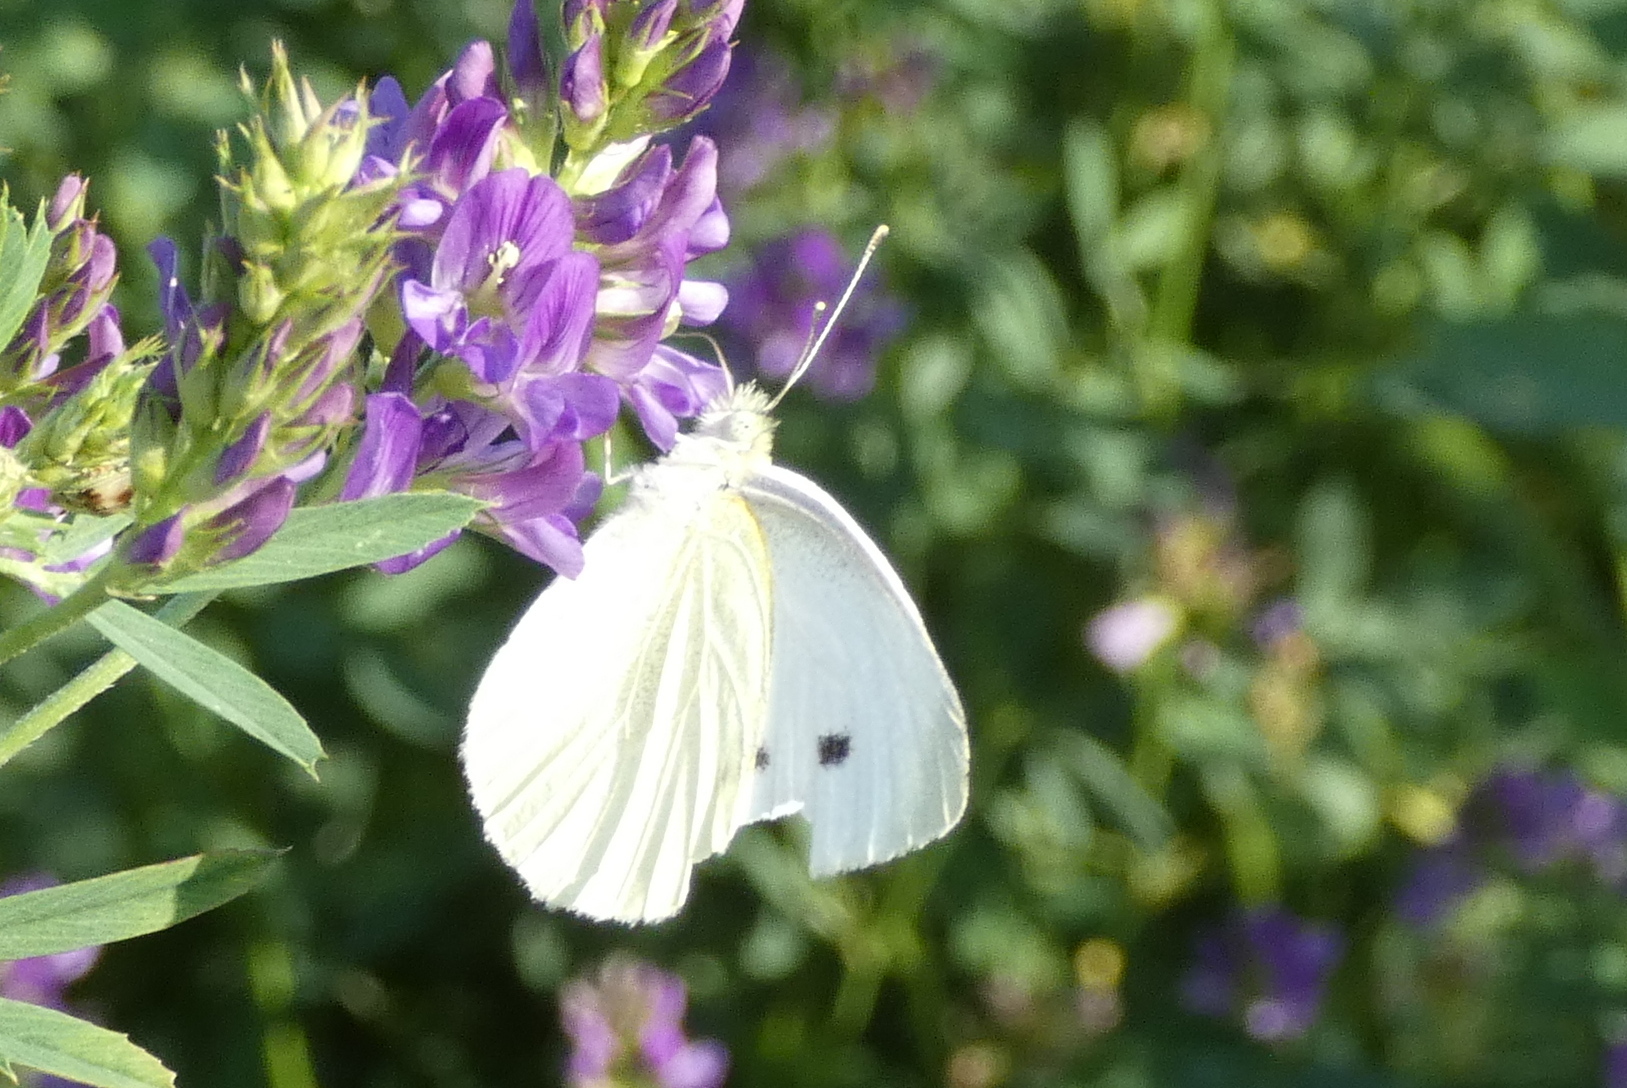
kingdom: Animalia
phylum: Arthropoda
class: Insecta
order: Lepidoptera
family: Pieridae
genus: Pieris
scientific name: Pieris rapae
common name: Small white
